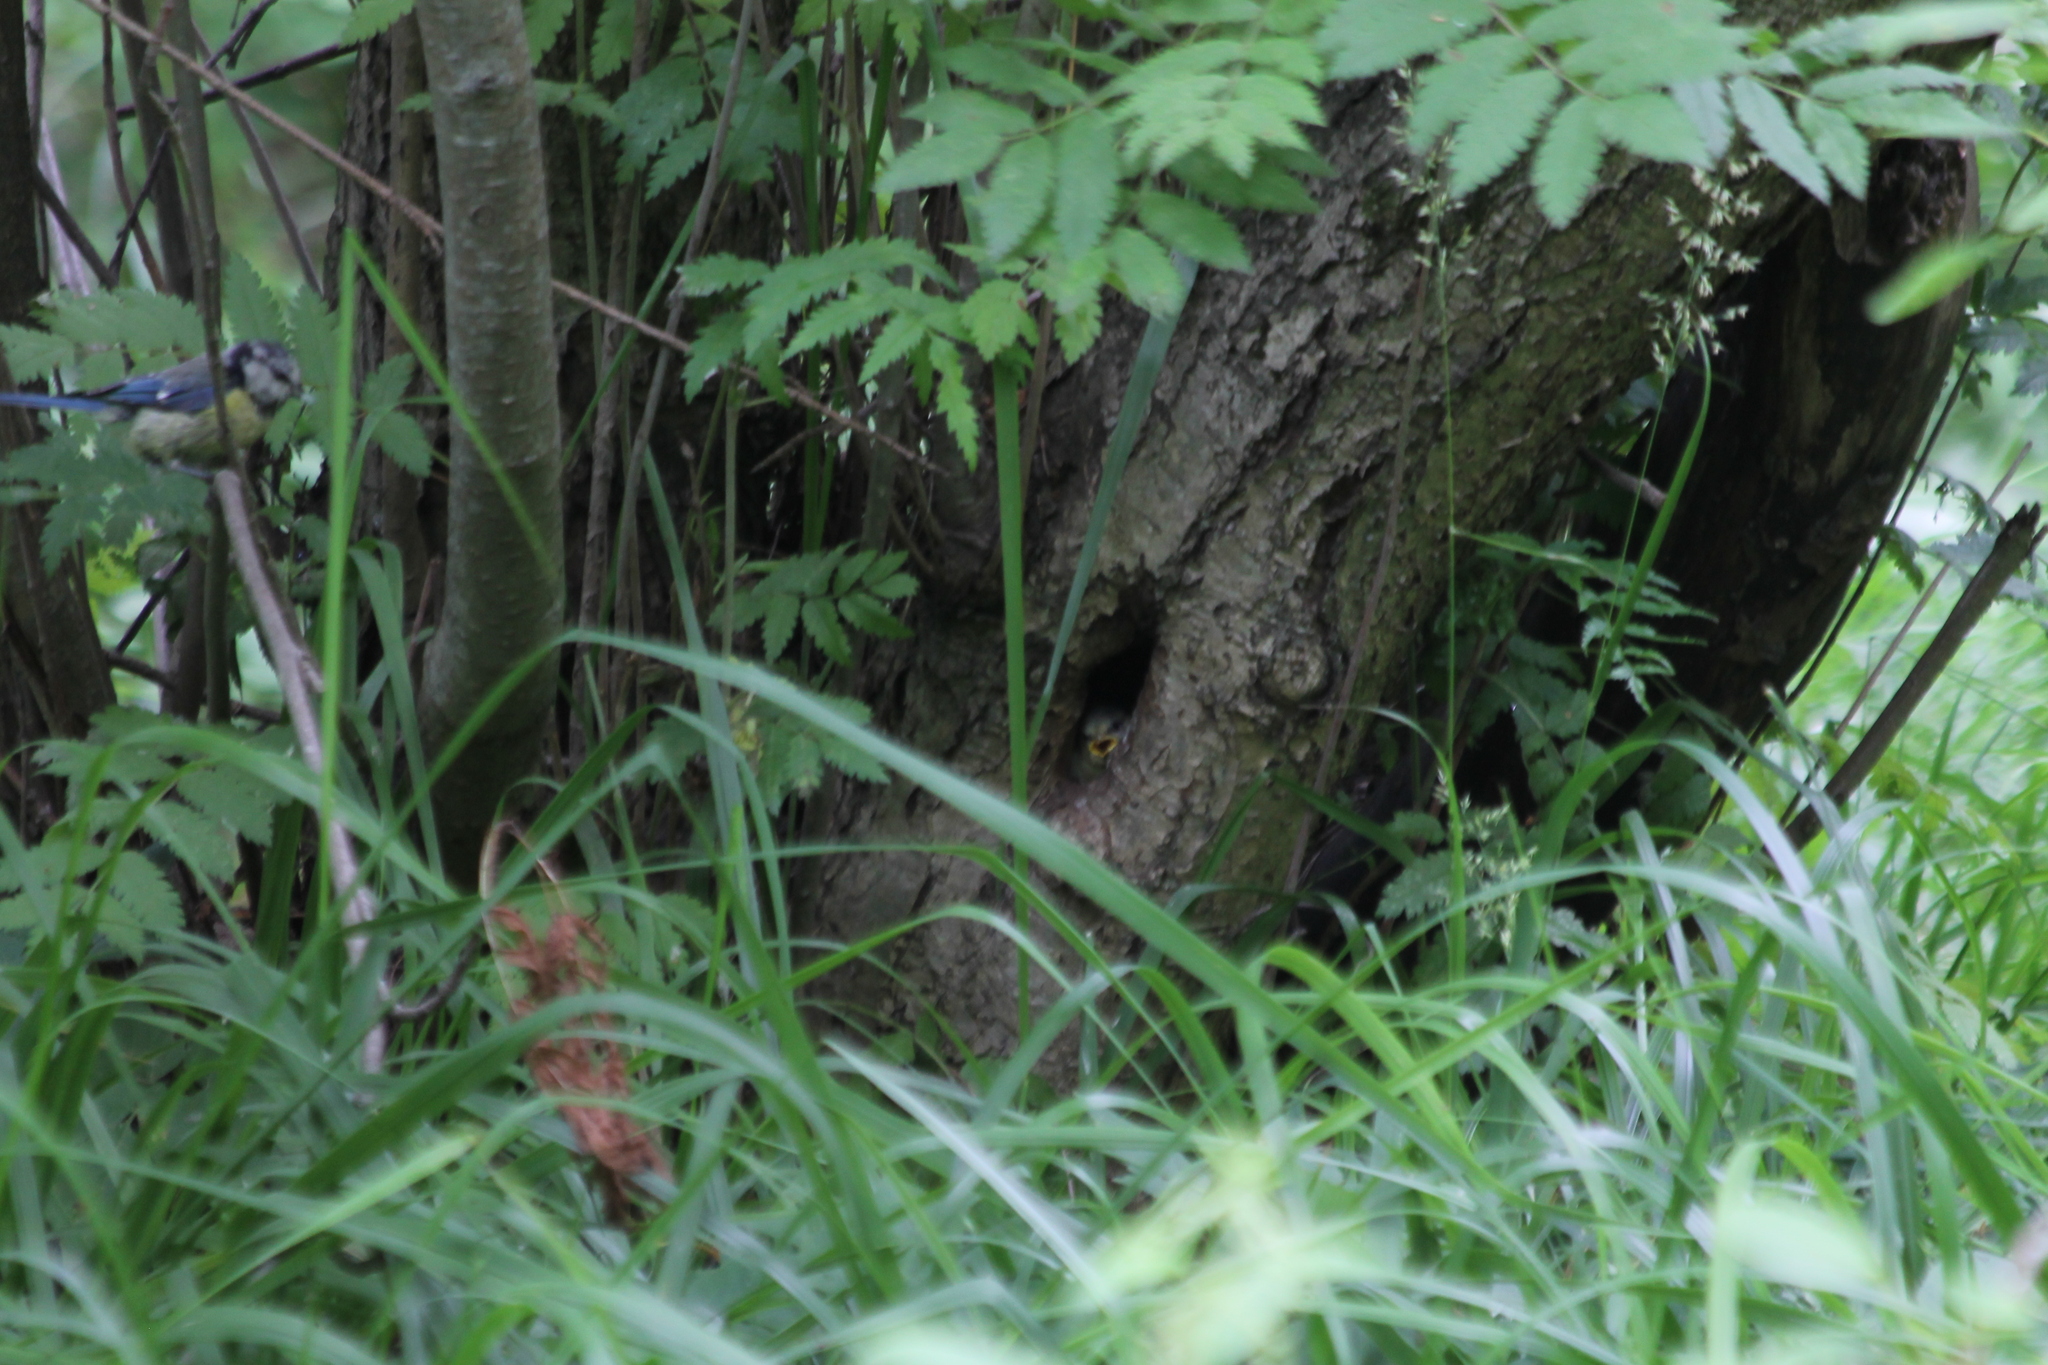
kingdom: Animalia
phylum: Chordata
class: Aves
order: Passeriformes
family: Paridae
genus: Cyanistes
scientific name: Cyanistes caeruleus
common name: Eurasian blue tit
